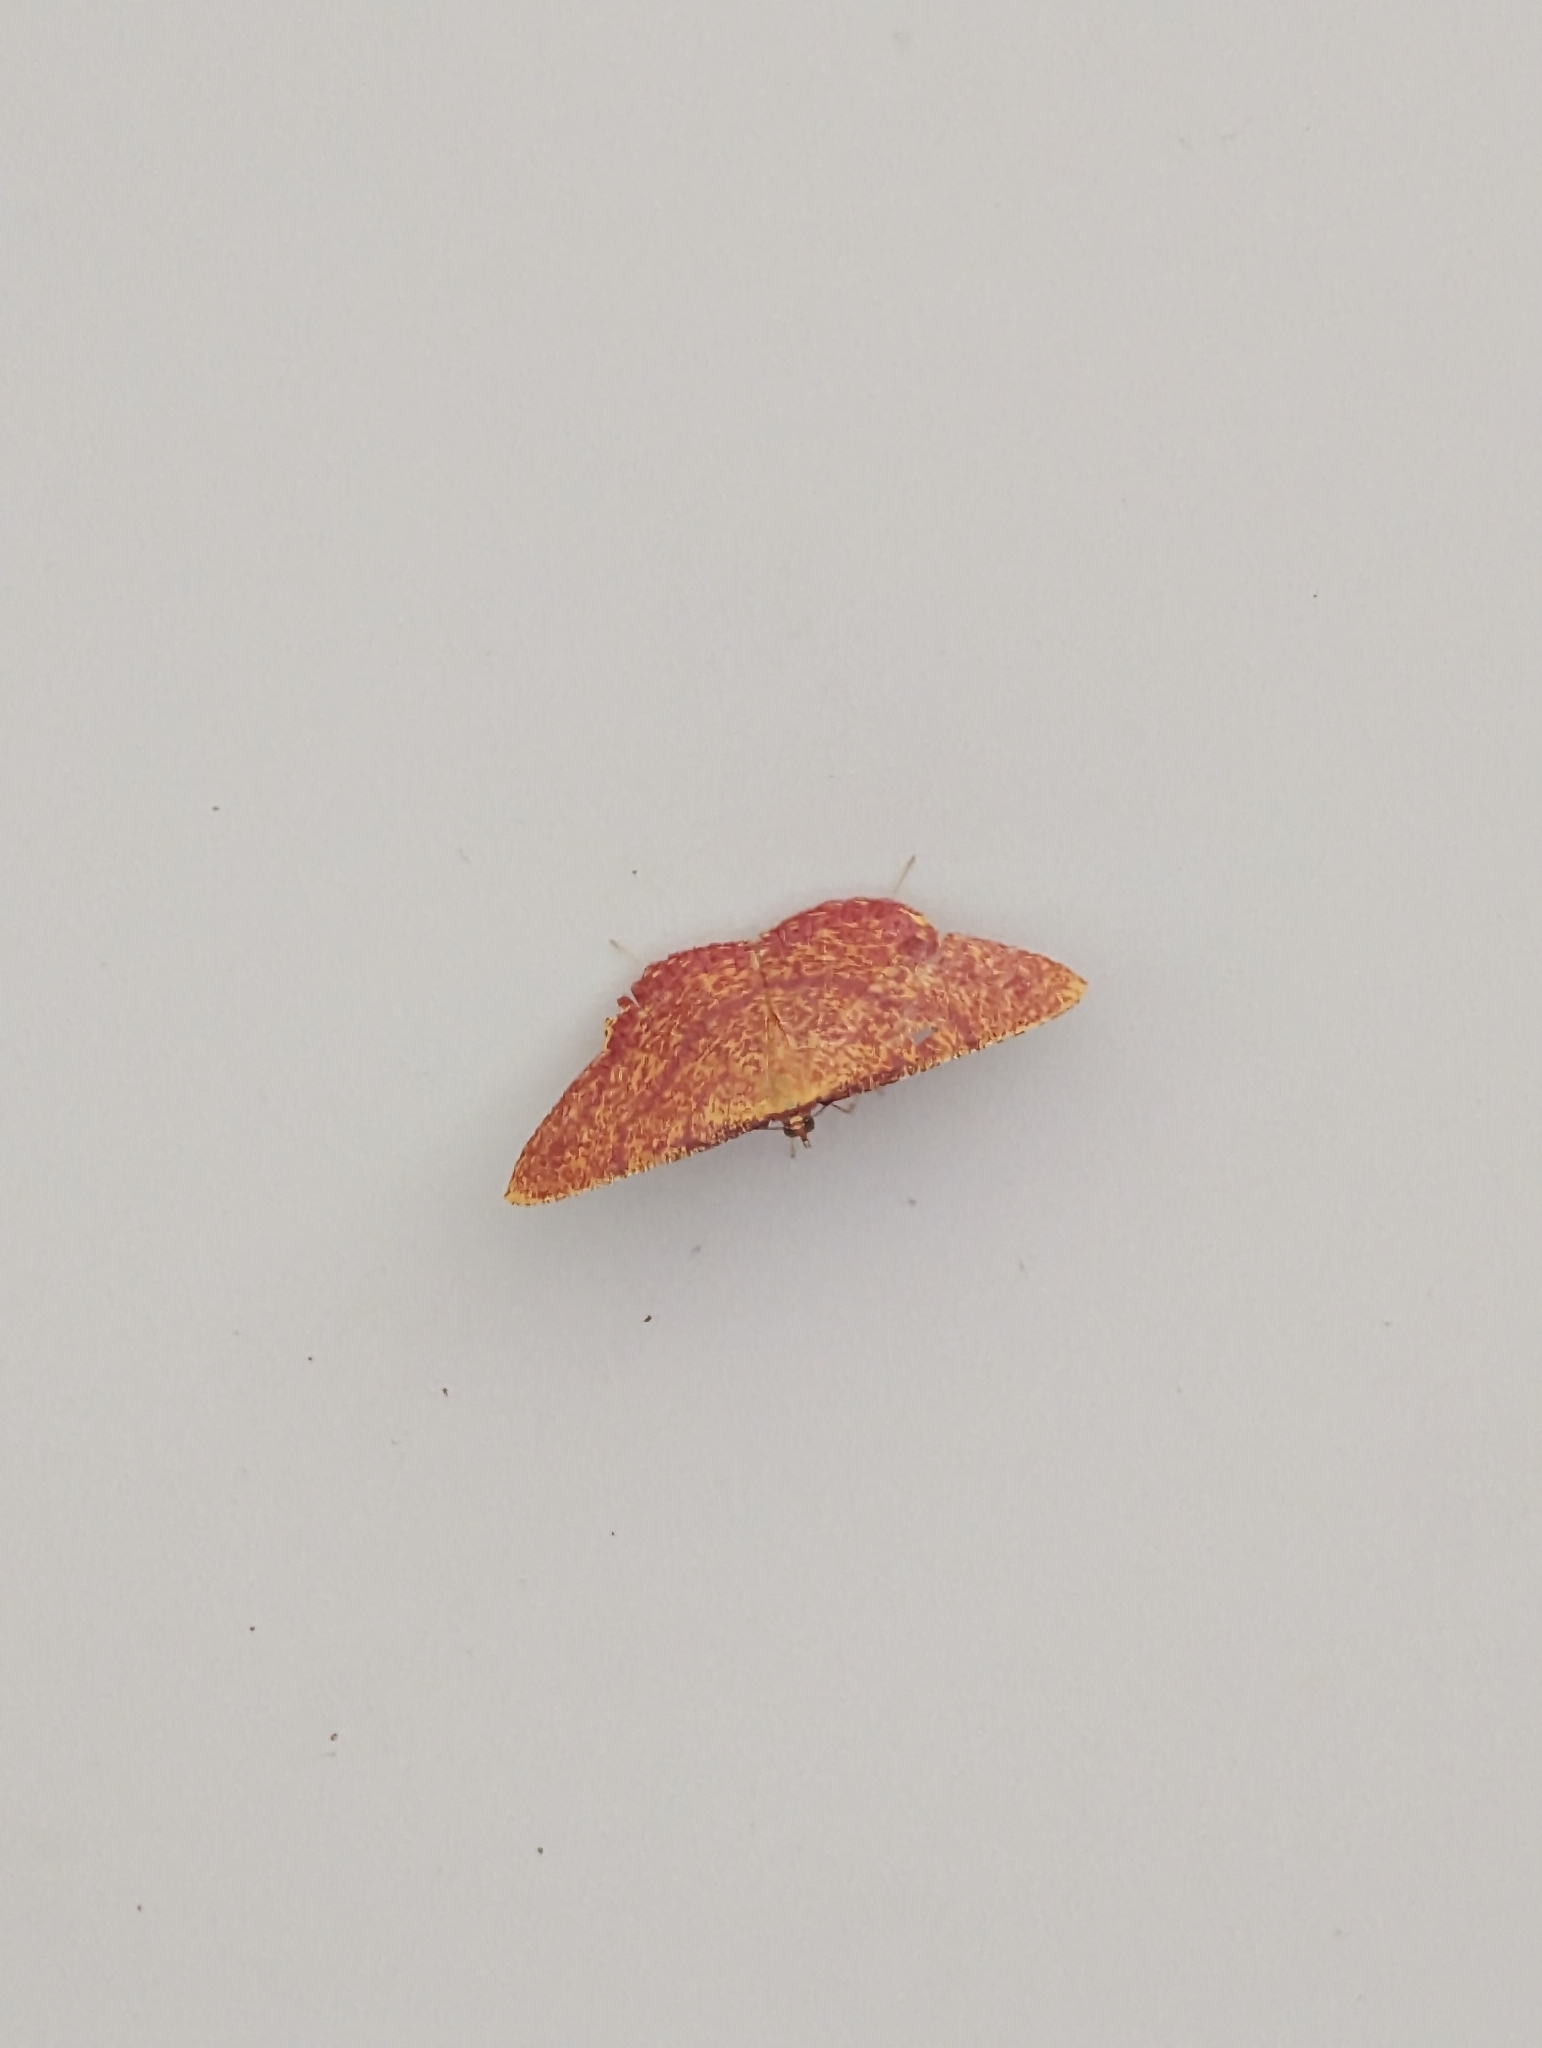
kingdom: Animalia
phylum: Arthropoda
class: Insecta
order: Lepidoptera
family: Geometridae
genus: Eumelea
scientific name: Eumelea rosalia
